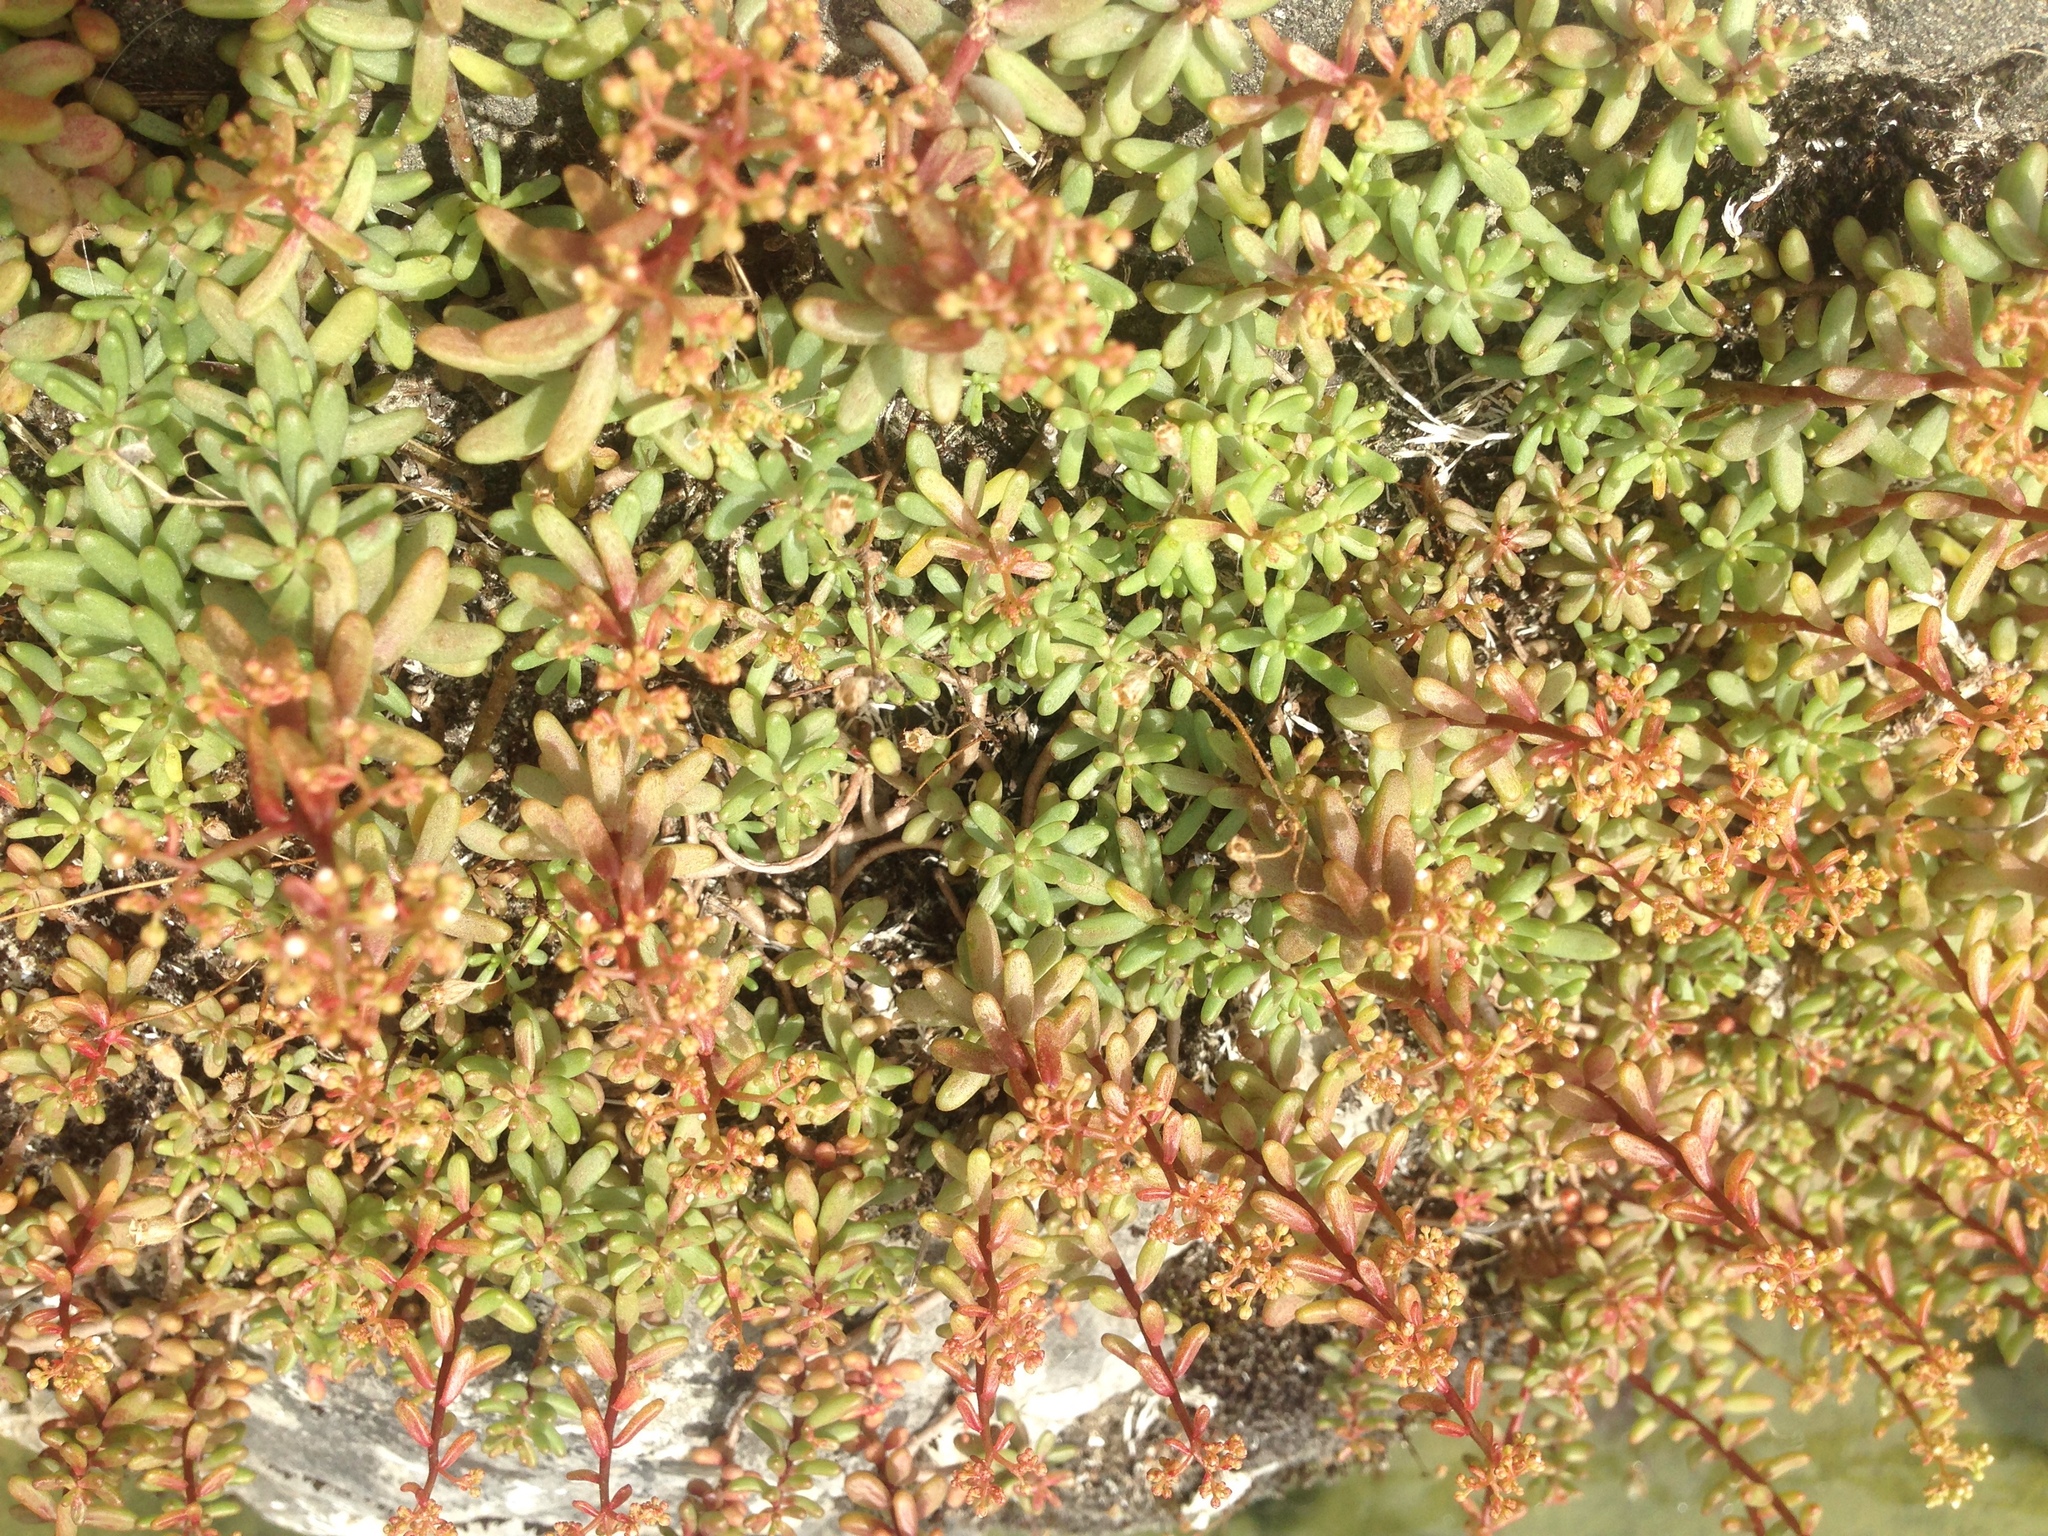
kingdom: Plantae
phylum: Tracheophyta
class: Magnoliopsida
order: Saxifragales
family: Crassulaceae
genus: Sedum
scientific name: Sedum album
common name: White stonecrop
